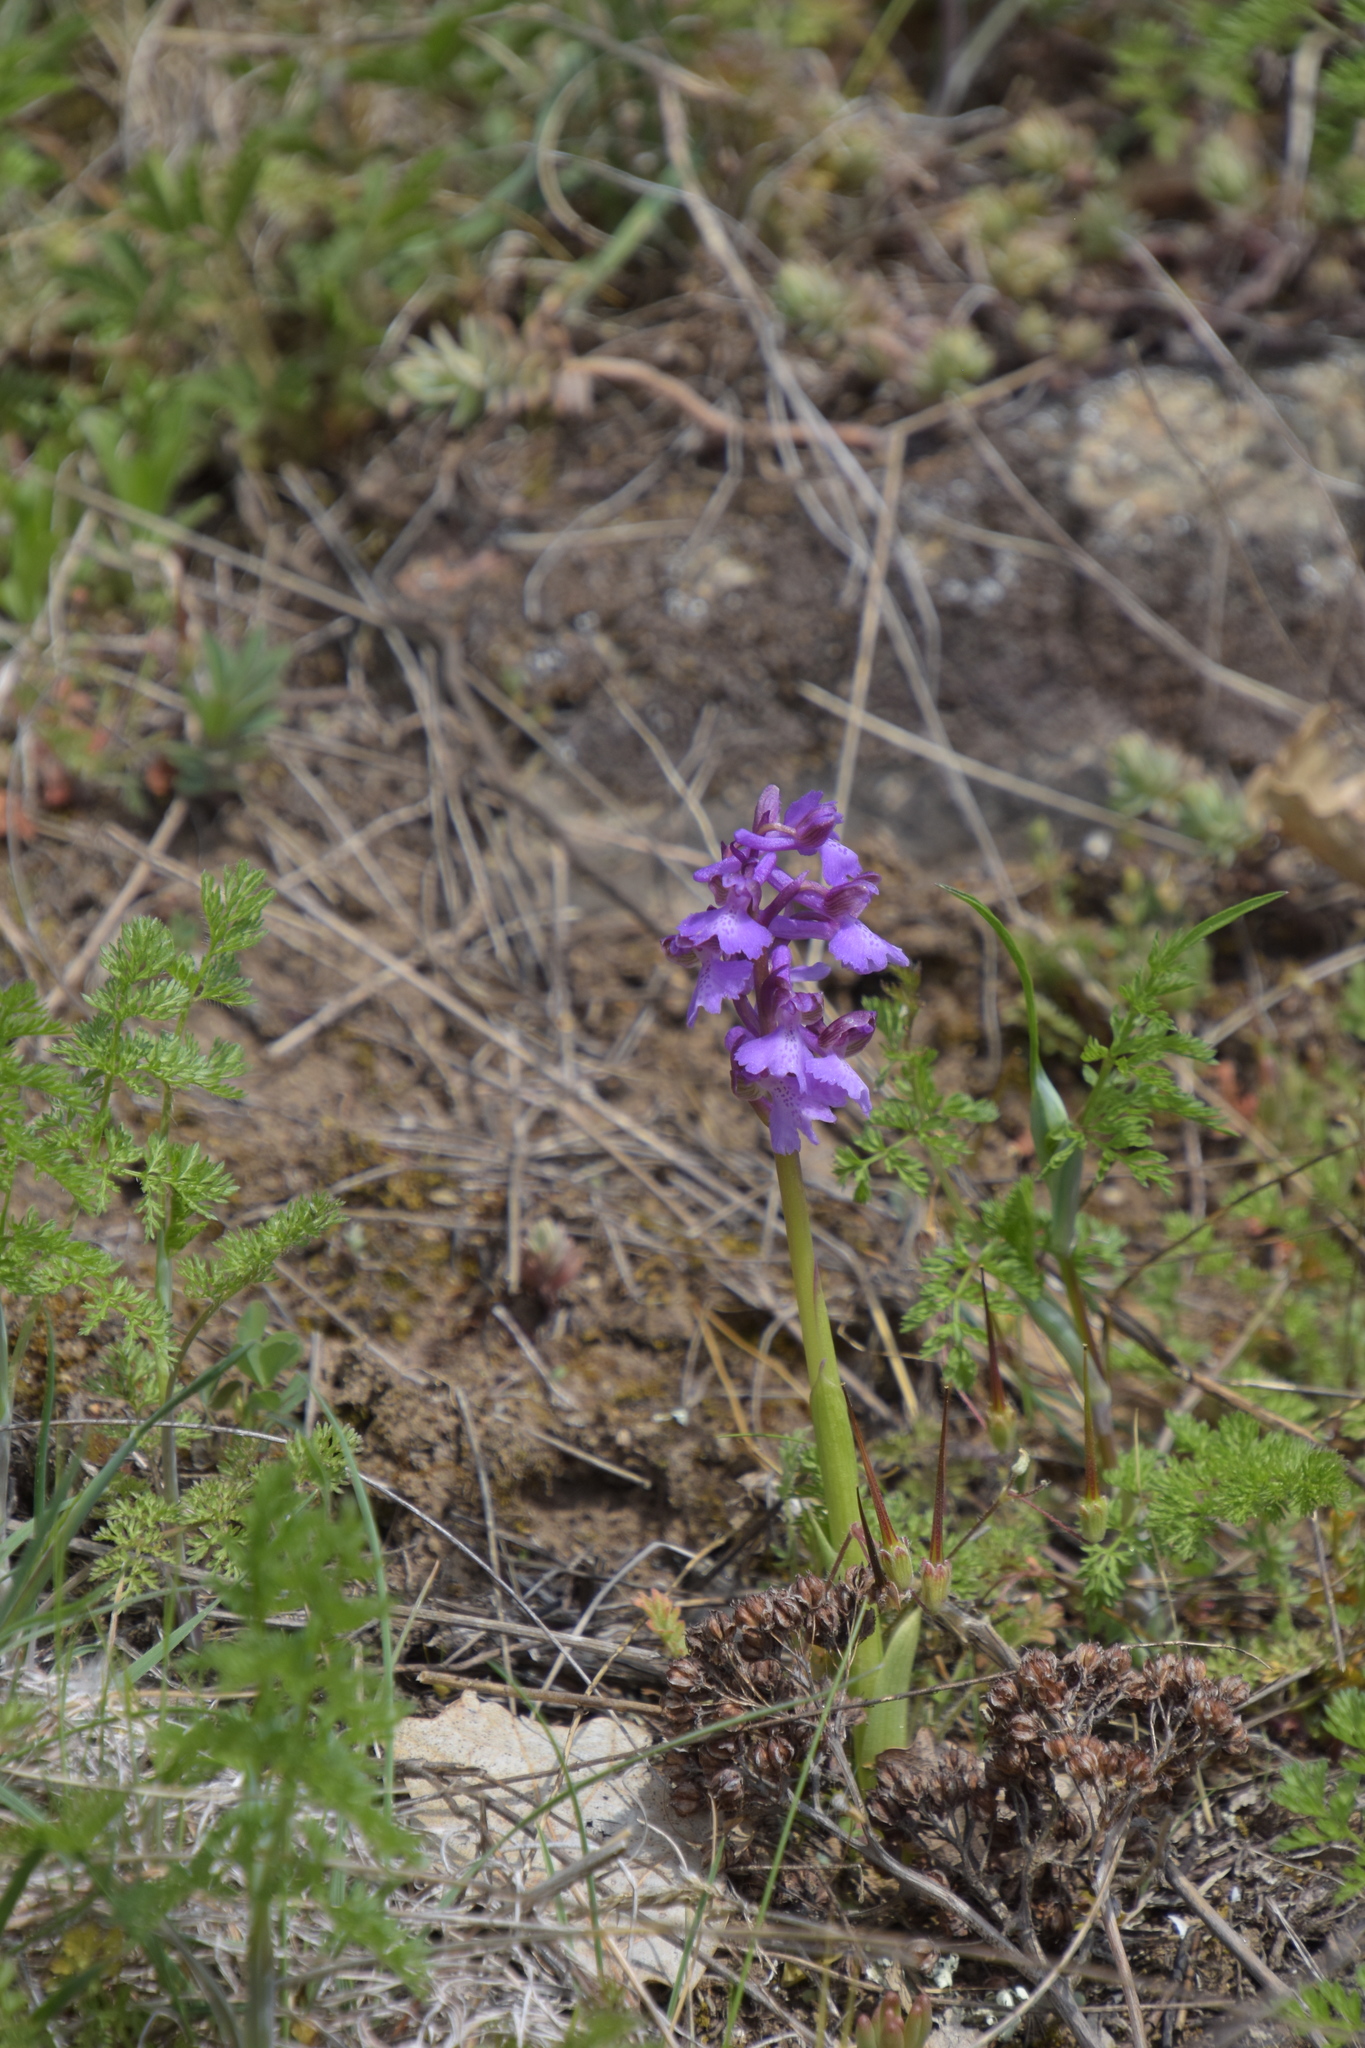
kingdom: Plantae
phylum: Tracheophyta
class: Liliopsida
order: Asparagales
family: Orchidaceae
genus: Anacamptis
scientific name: Anacamptis morio
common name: Green-winged orchid
